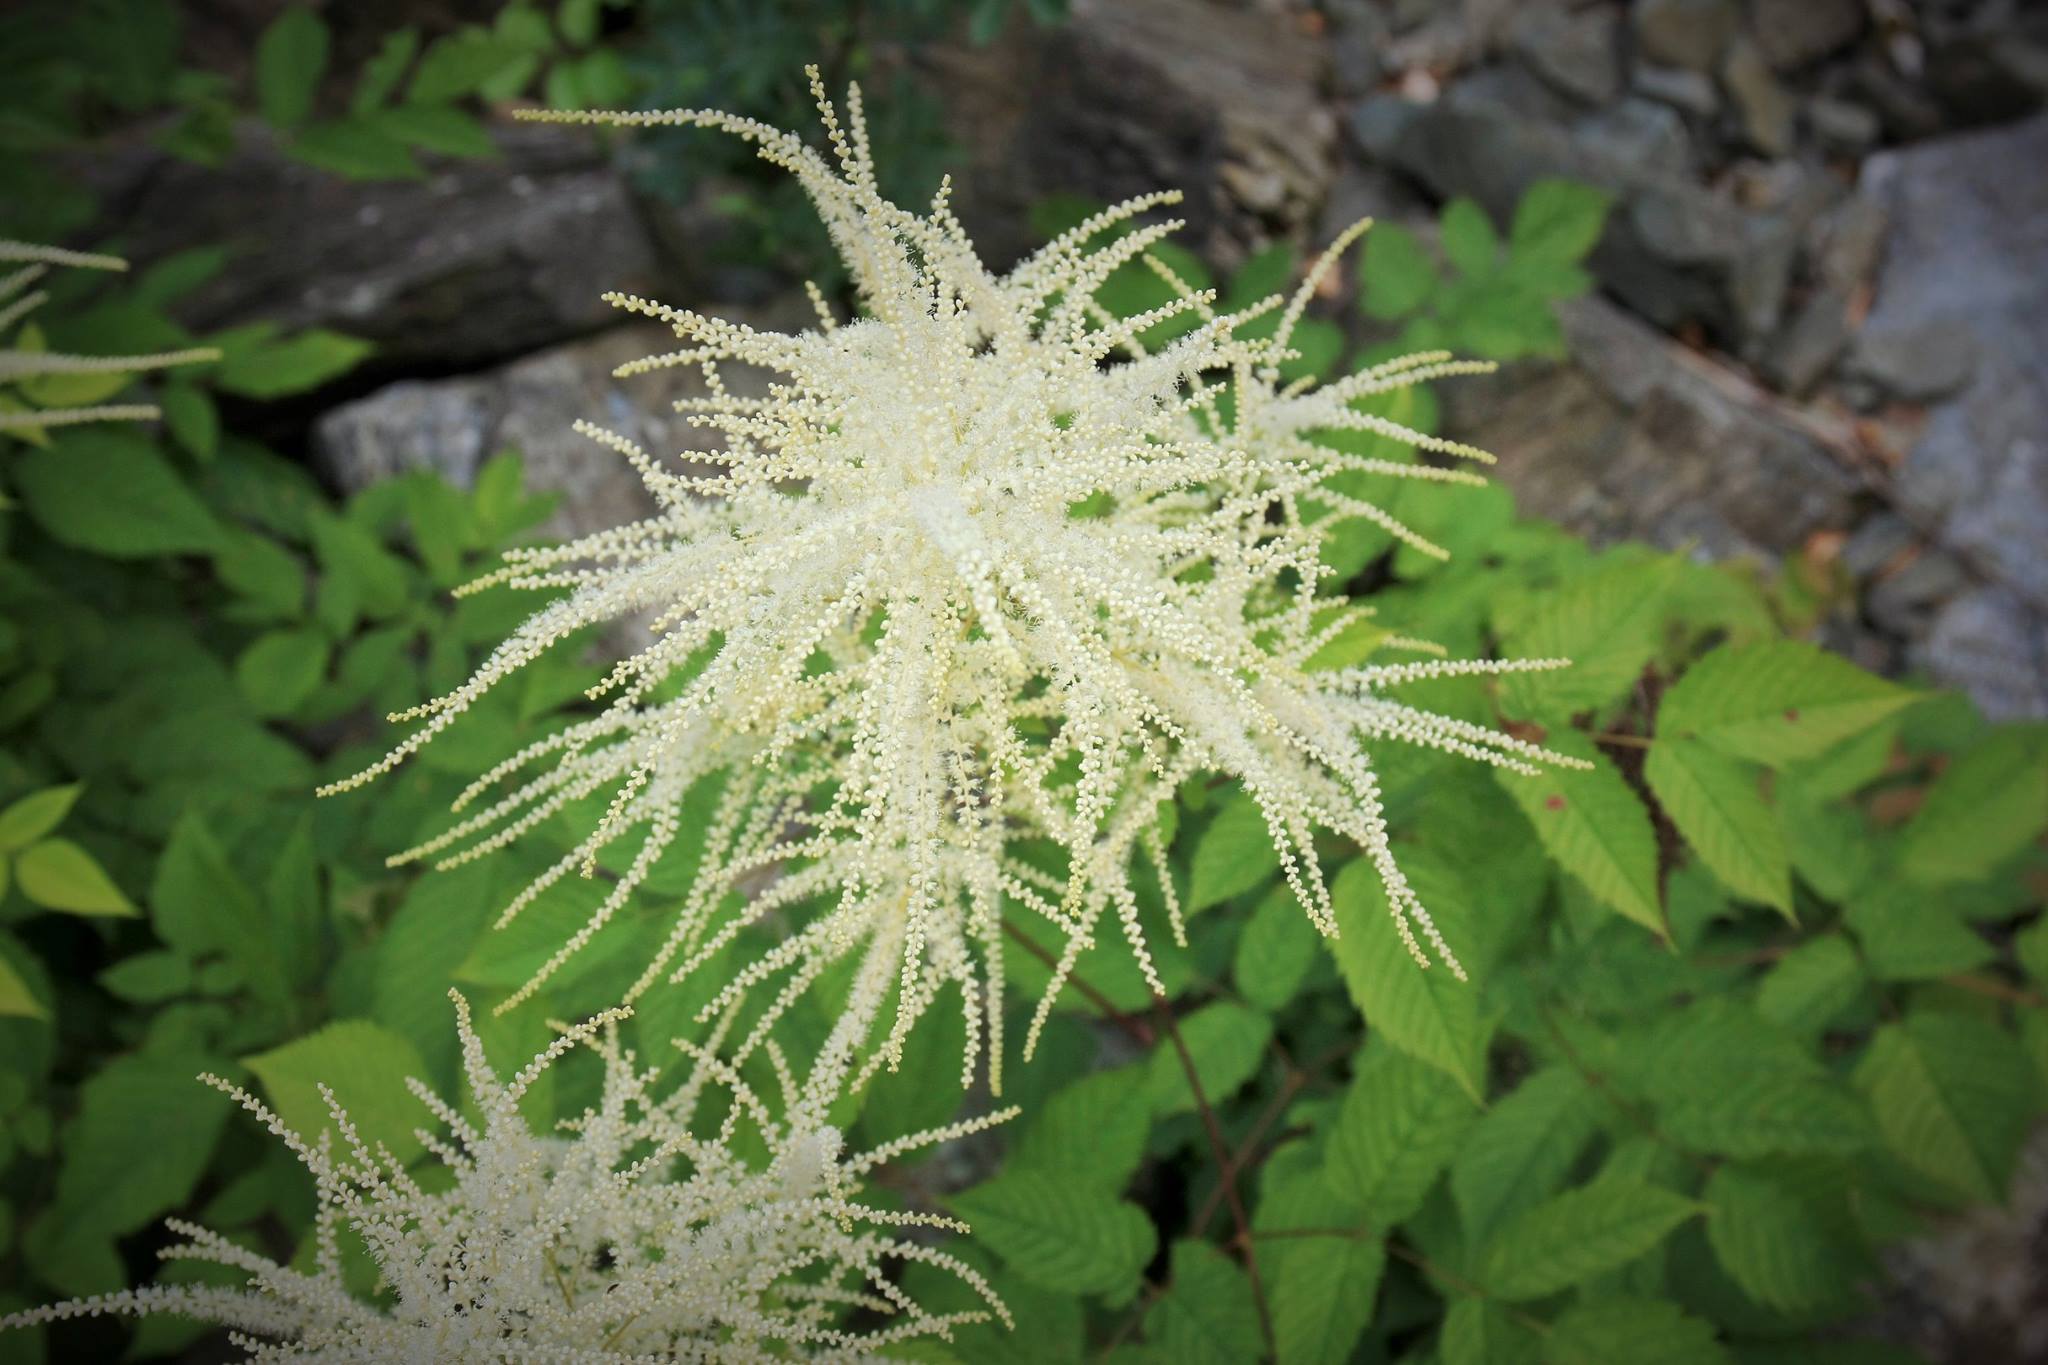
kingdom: Plantae
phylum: Tracheophyta
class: Magnoliopsida
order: Rosales
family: Rosaceae
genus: Aruncus
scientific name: Aruncus dioicus
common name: Buck's-beard
